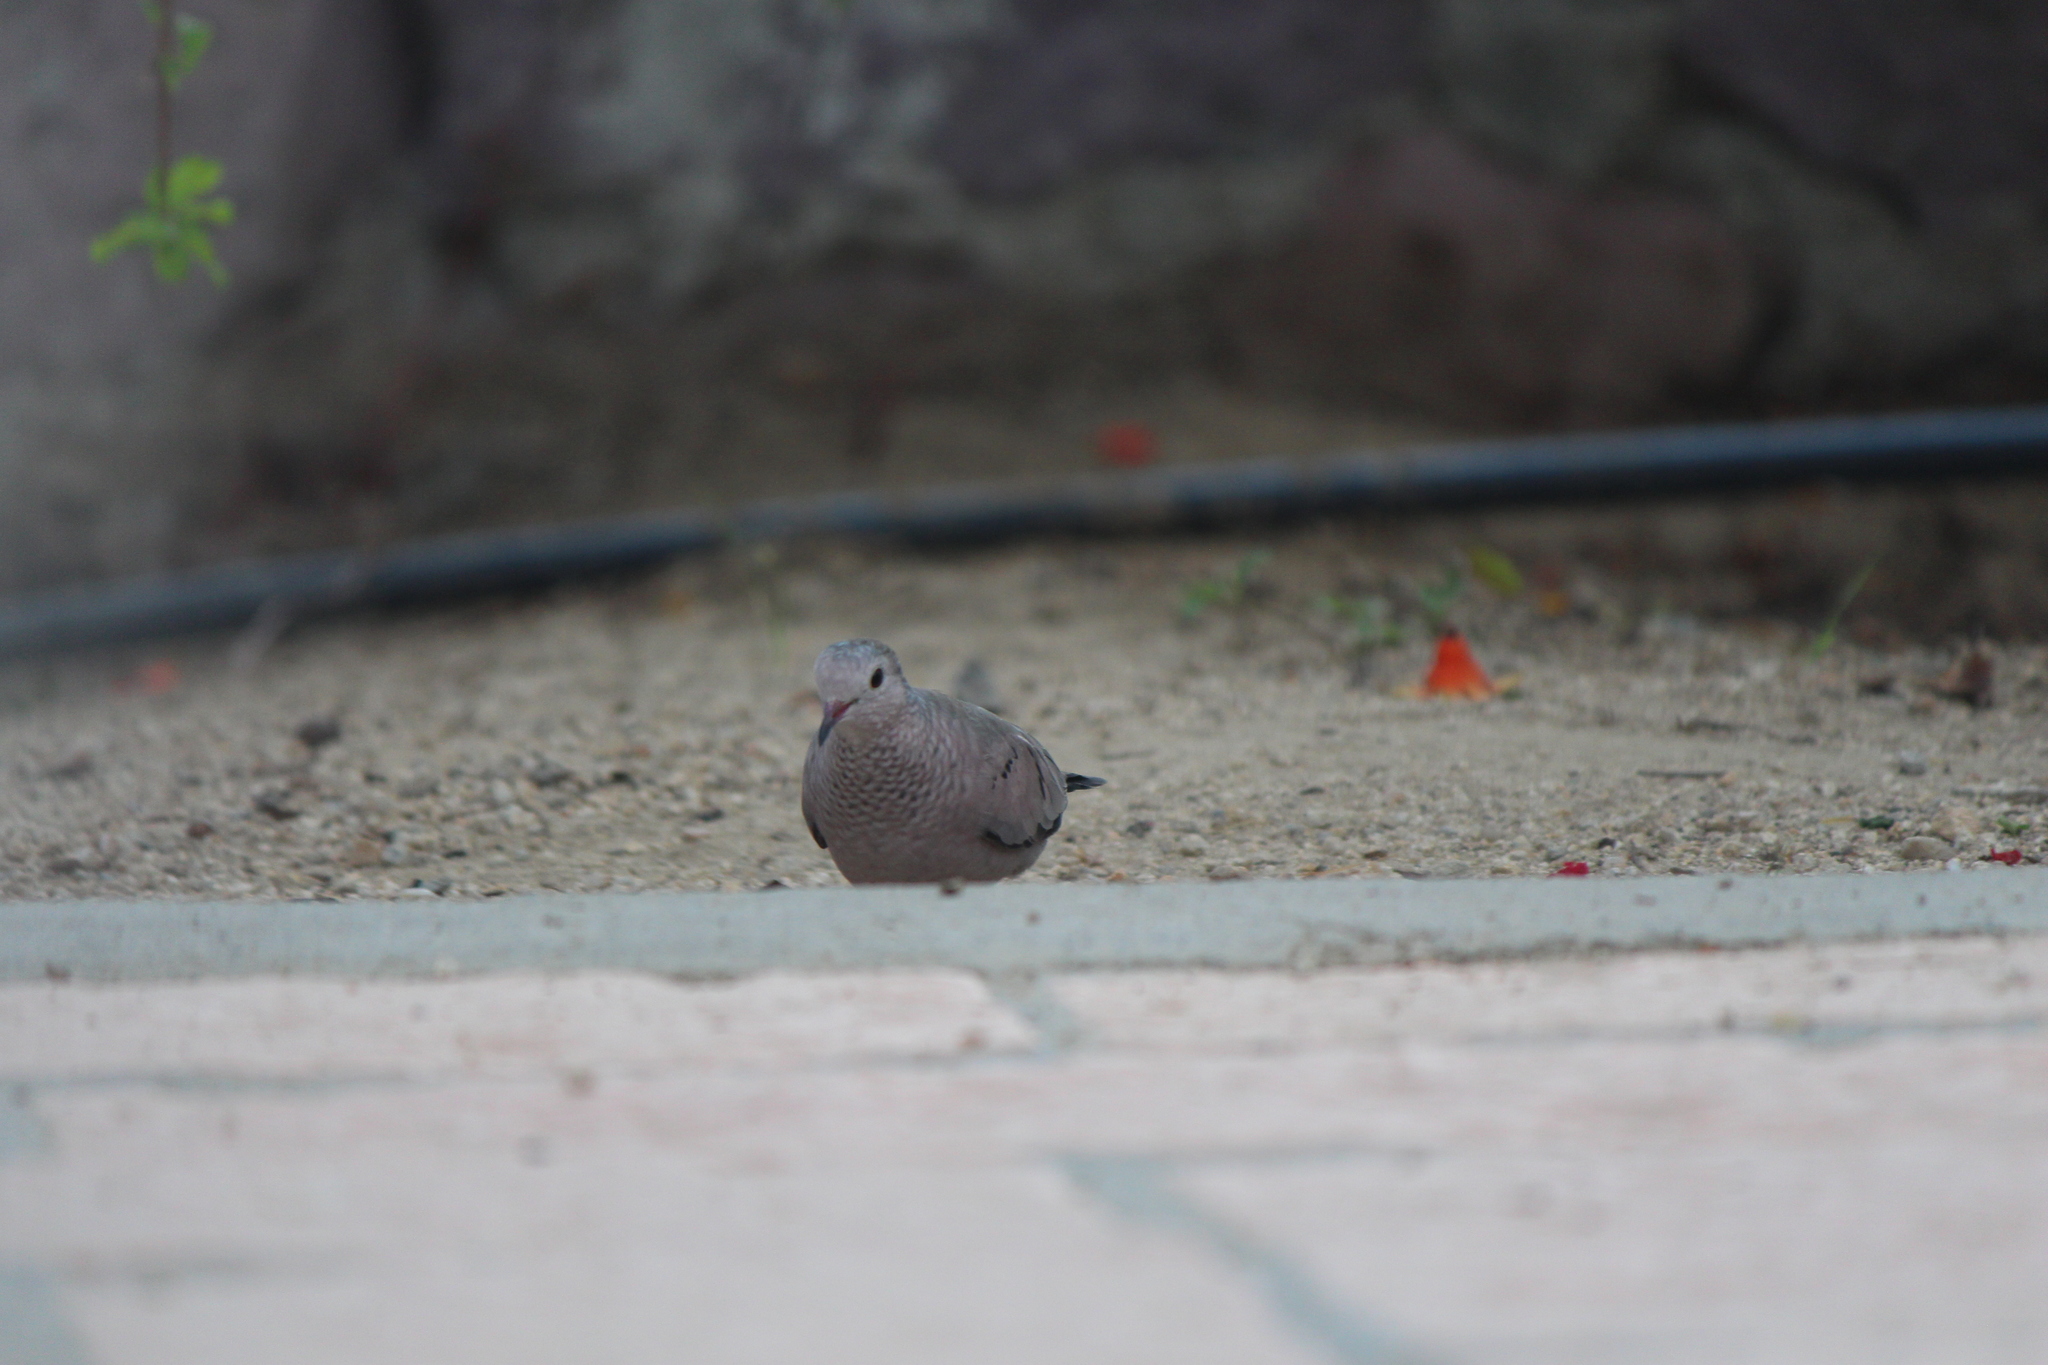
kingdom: Animalia
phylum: Chordata
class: Aves
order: Columbiformes
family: Columbidae
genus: Columbina
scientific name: Columbina passerina
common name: Common ground-dove
